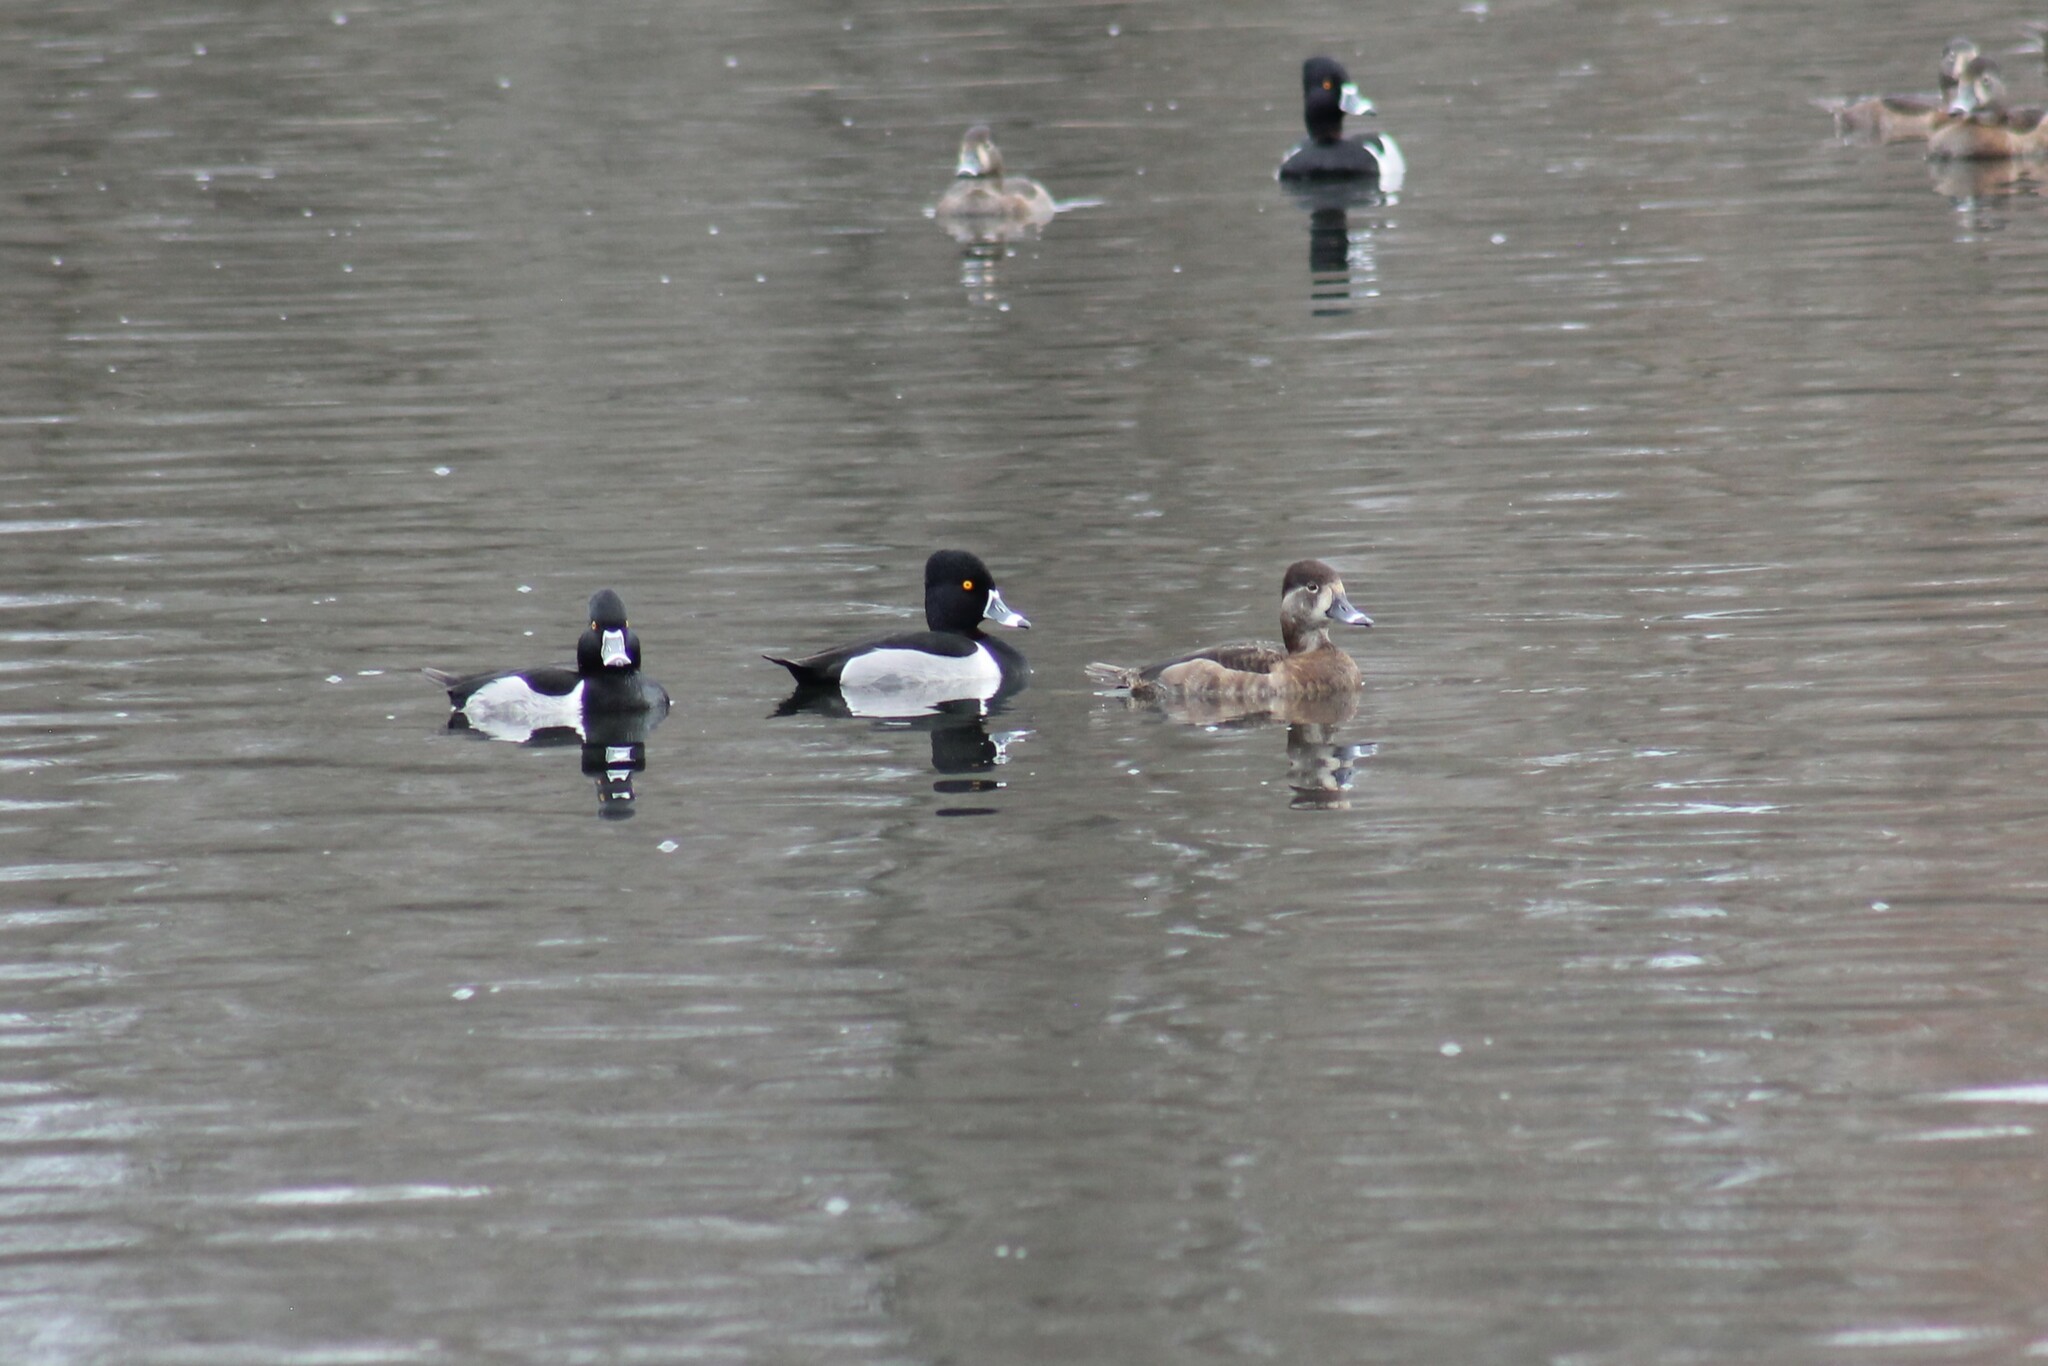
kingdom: Animalia
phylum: Chordata
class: Aves
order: Anseriformes
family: Anatidae
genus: Aythya
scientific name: Aythya collaris
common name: Ring-necked duck
